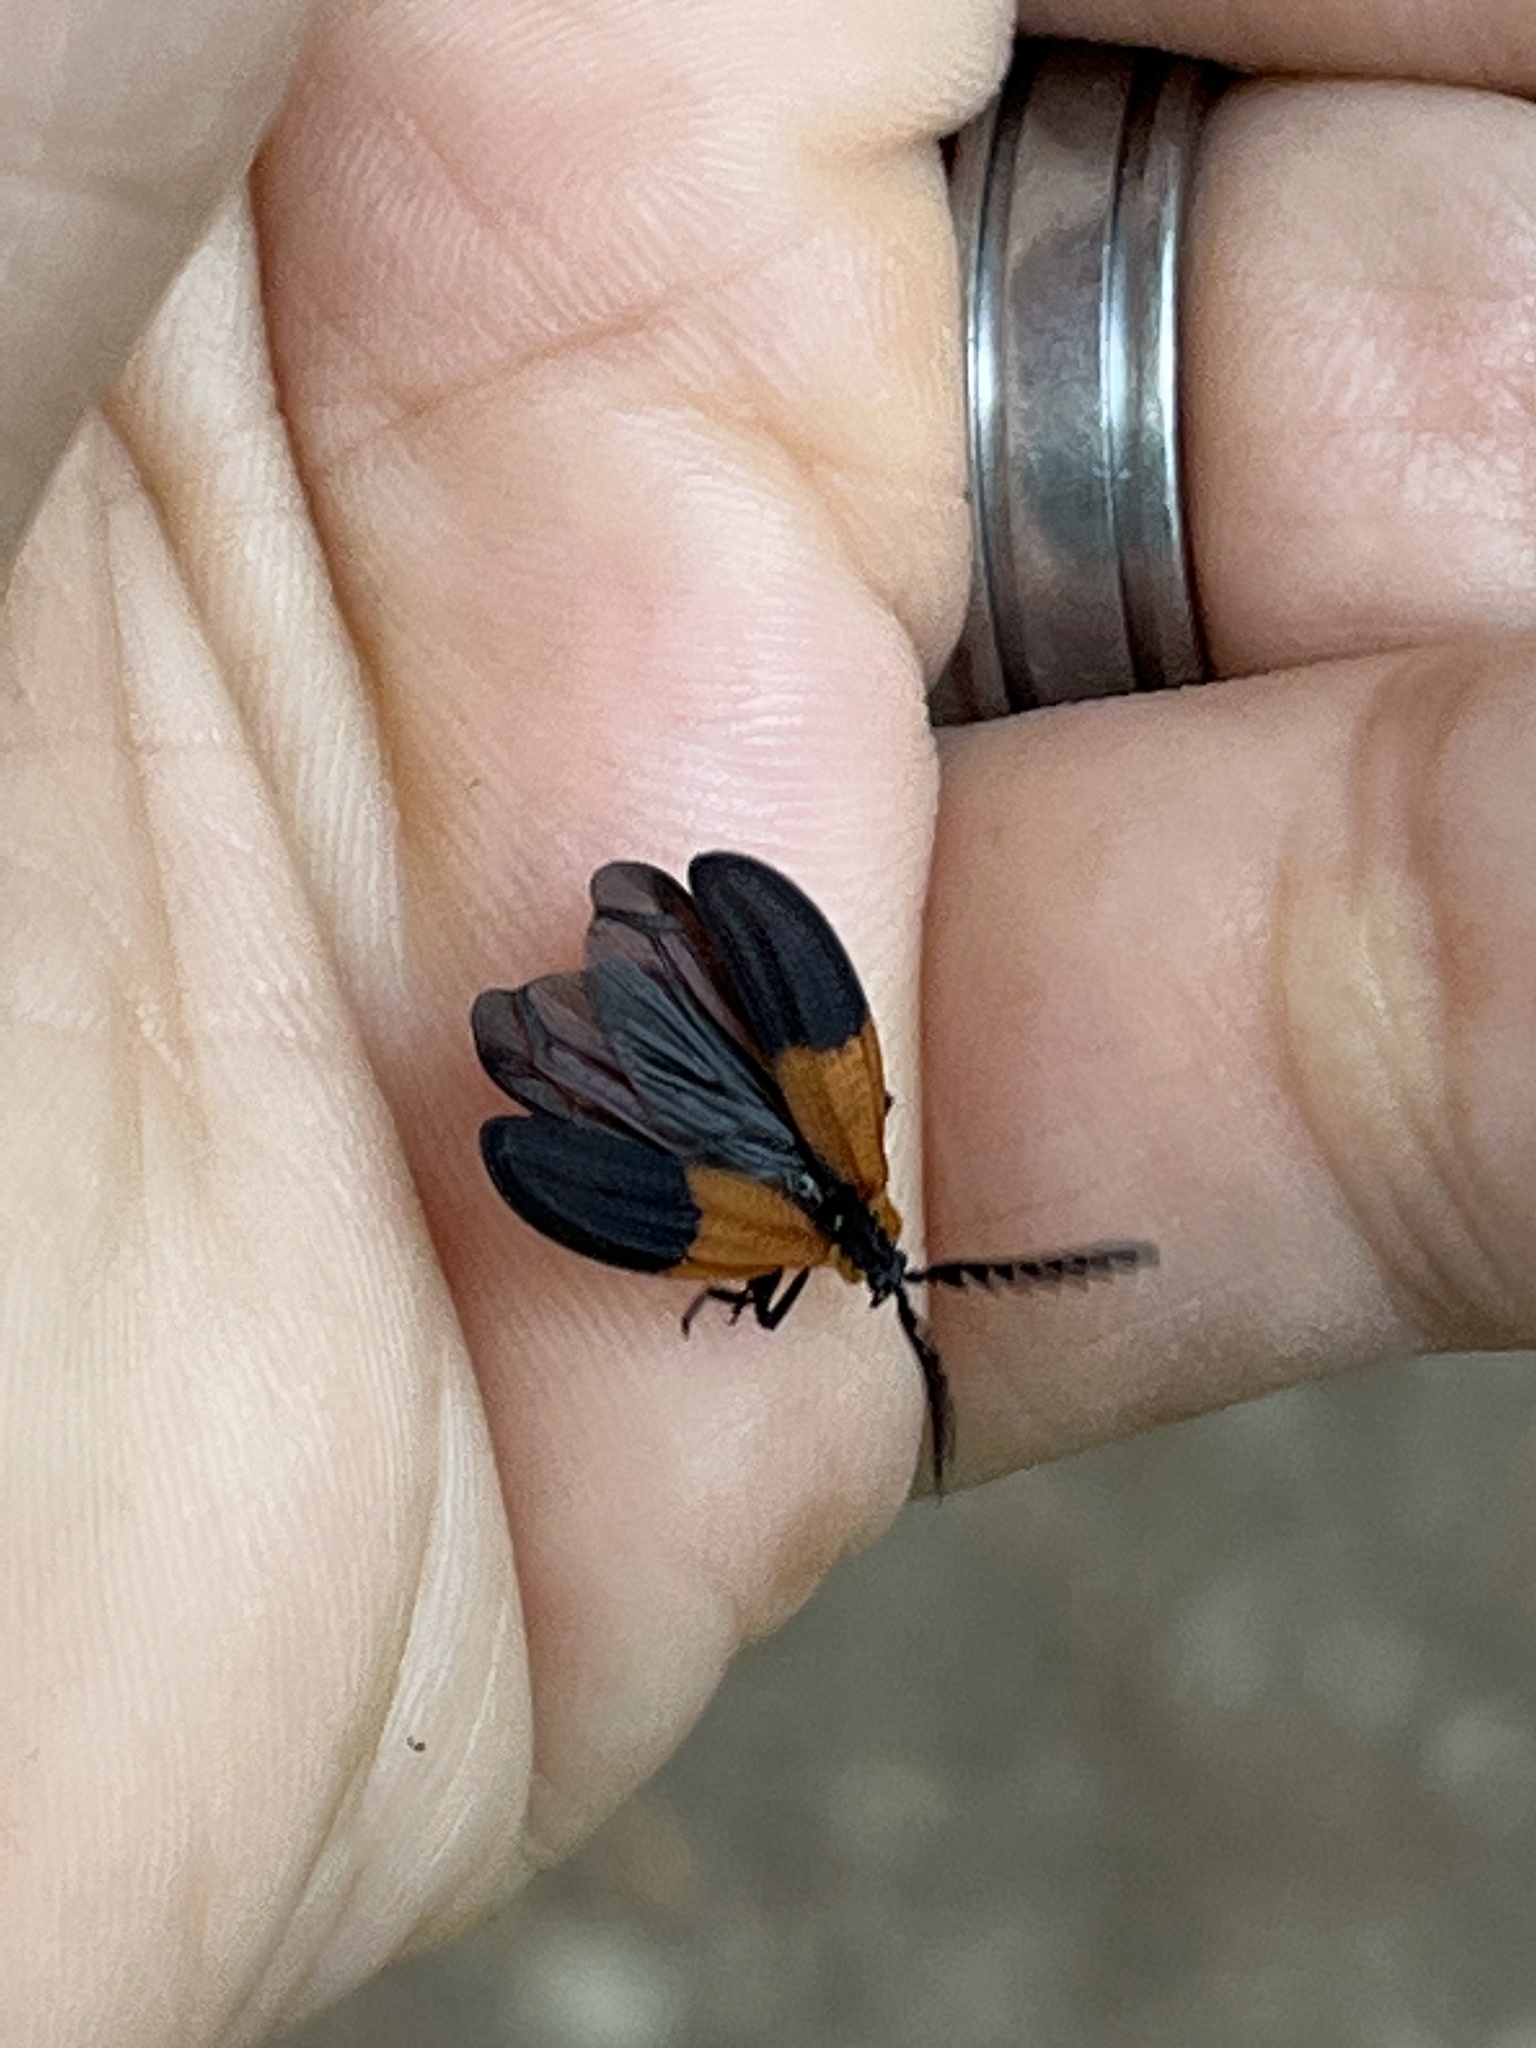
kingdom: Animalia
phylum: Arthropoda
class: Insecta
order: Coleoptera
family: Lycidae
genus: Caenia
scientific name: Caenia dimidiata
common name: Terminal net-winged beetle
